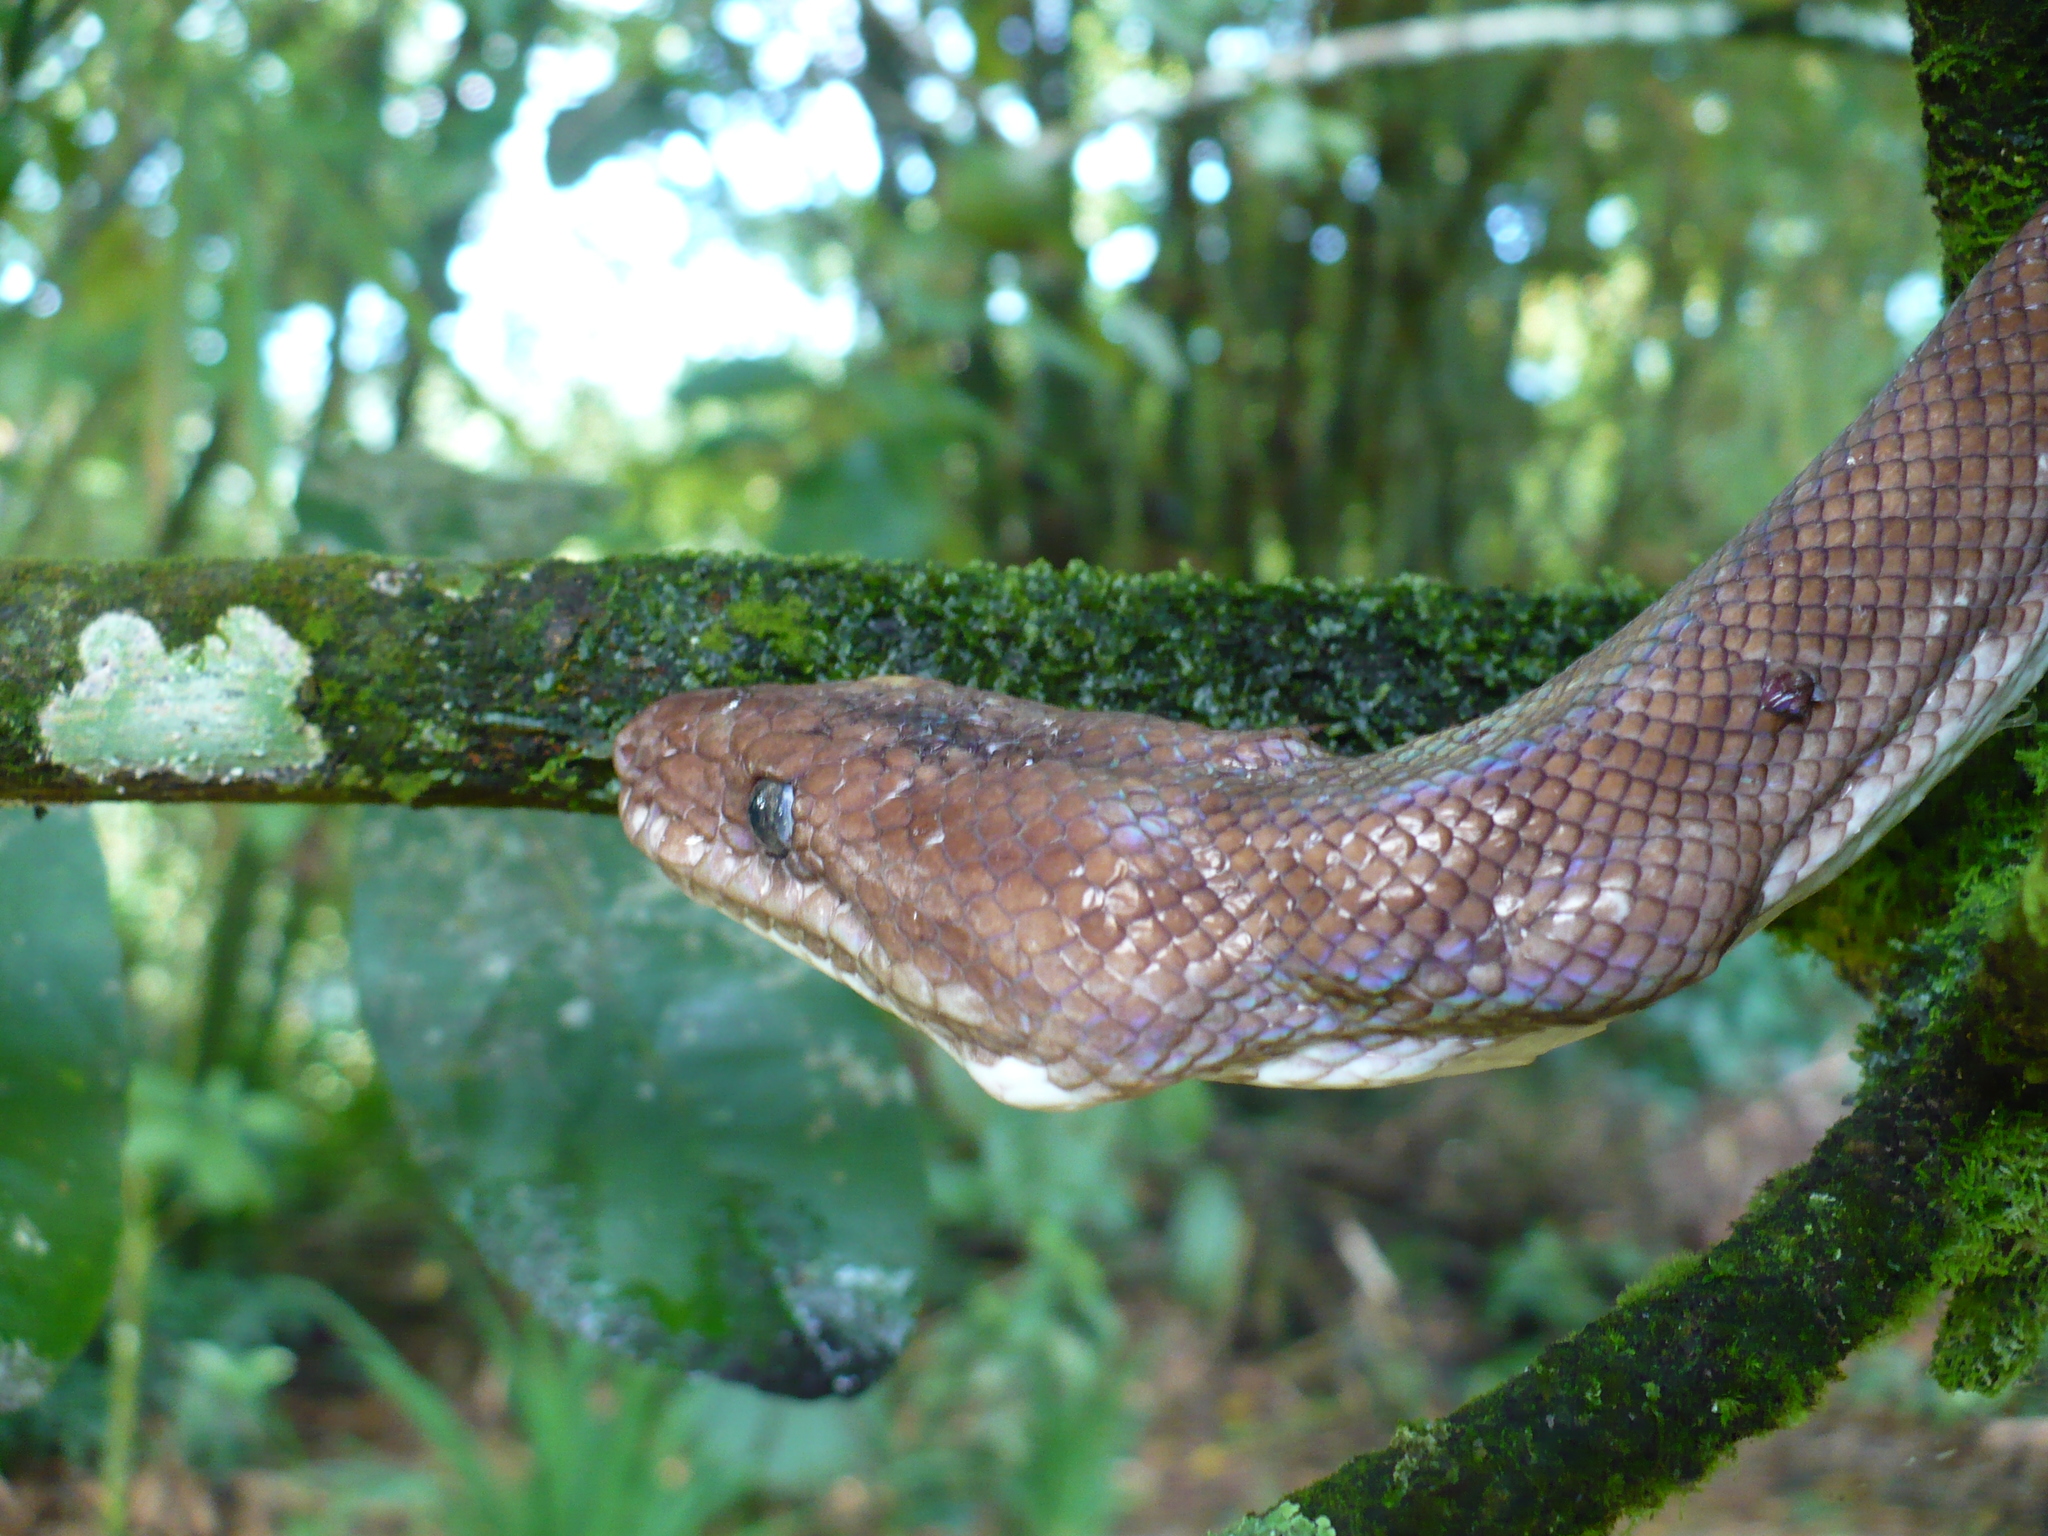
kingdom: Animalia
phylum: Chordata
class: Squamata
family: Boidae
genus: Epicrates
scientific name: Epicrates maurus
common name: Brown rainbow boa
